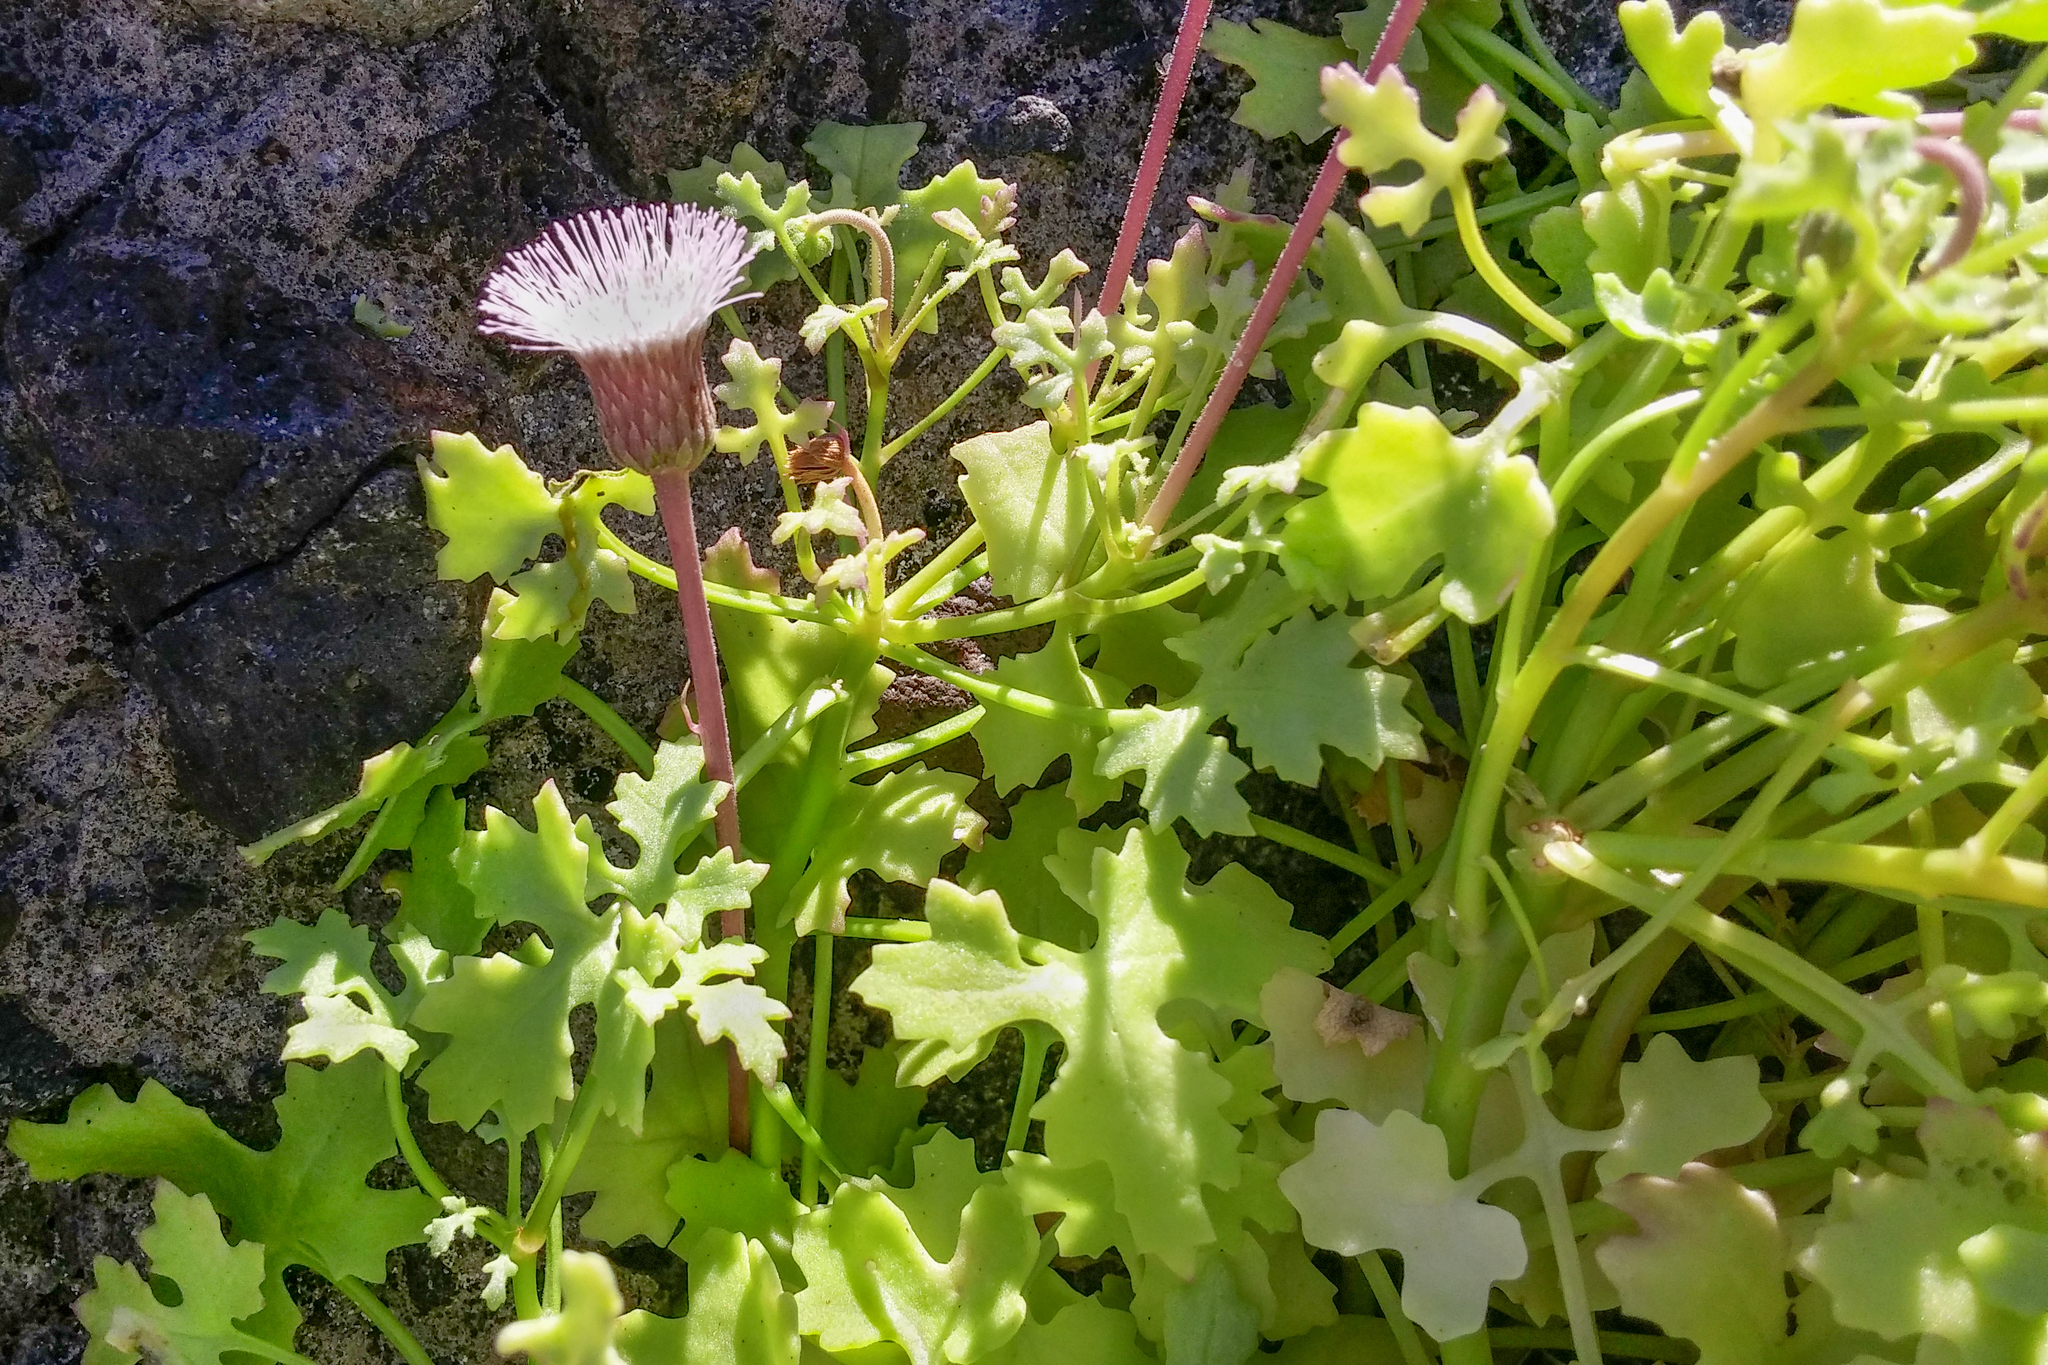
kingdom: Plantae
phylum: Tracheophyta
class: Magnoliopsida
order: Asterales
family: Asteraceae
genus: Hofmeisteria
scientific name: Hofmeisteria fasciculata
